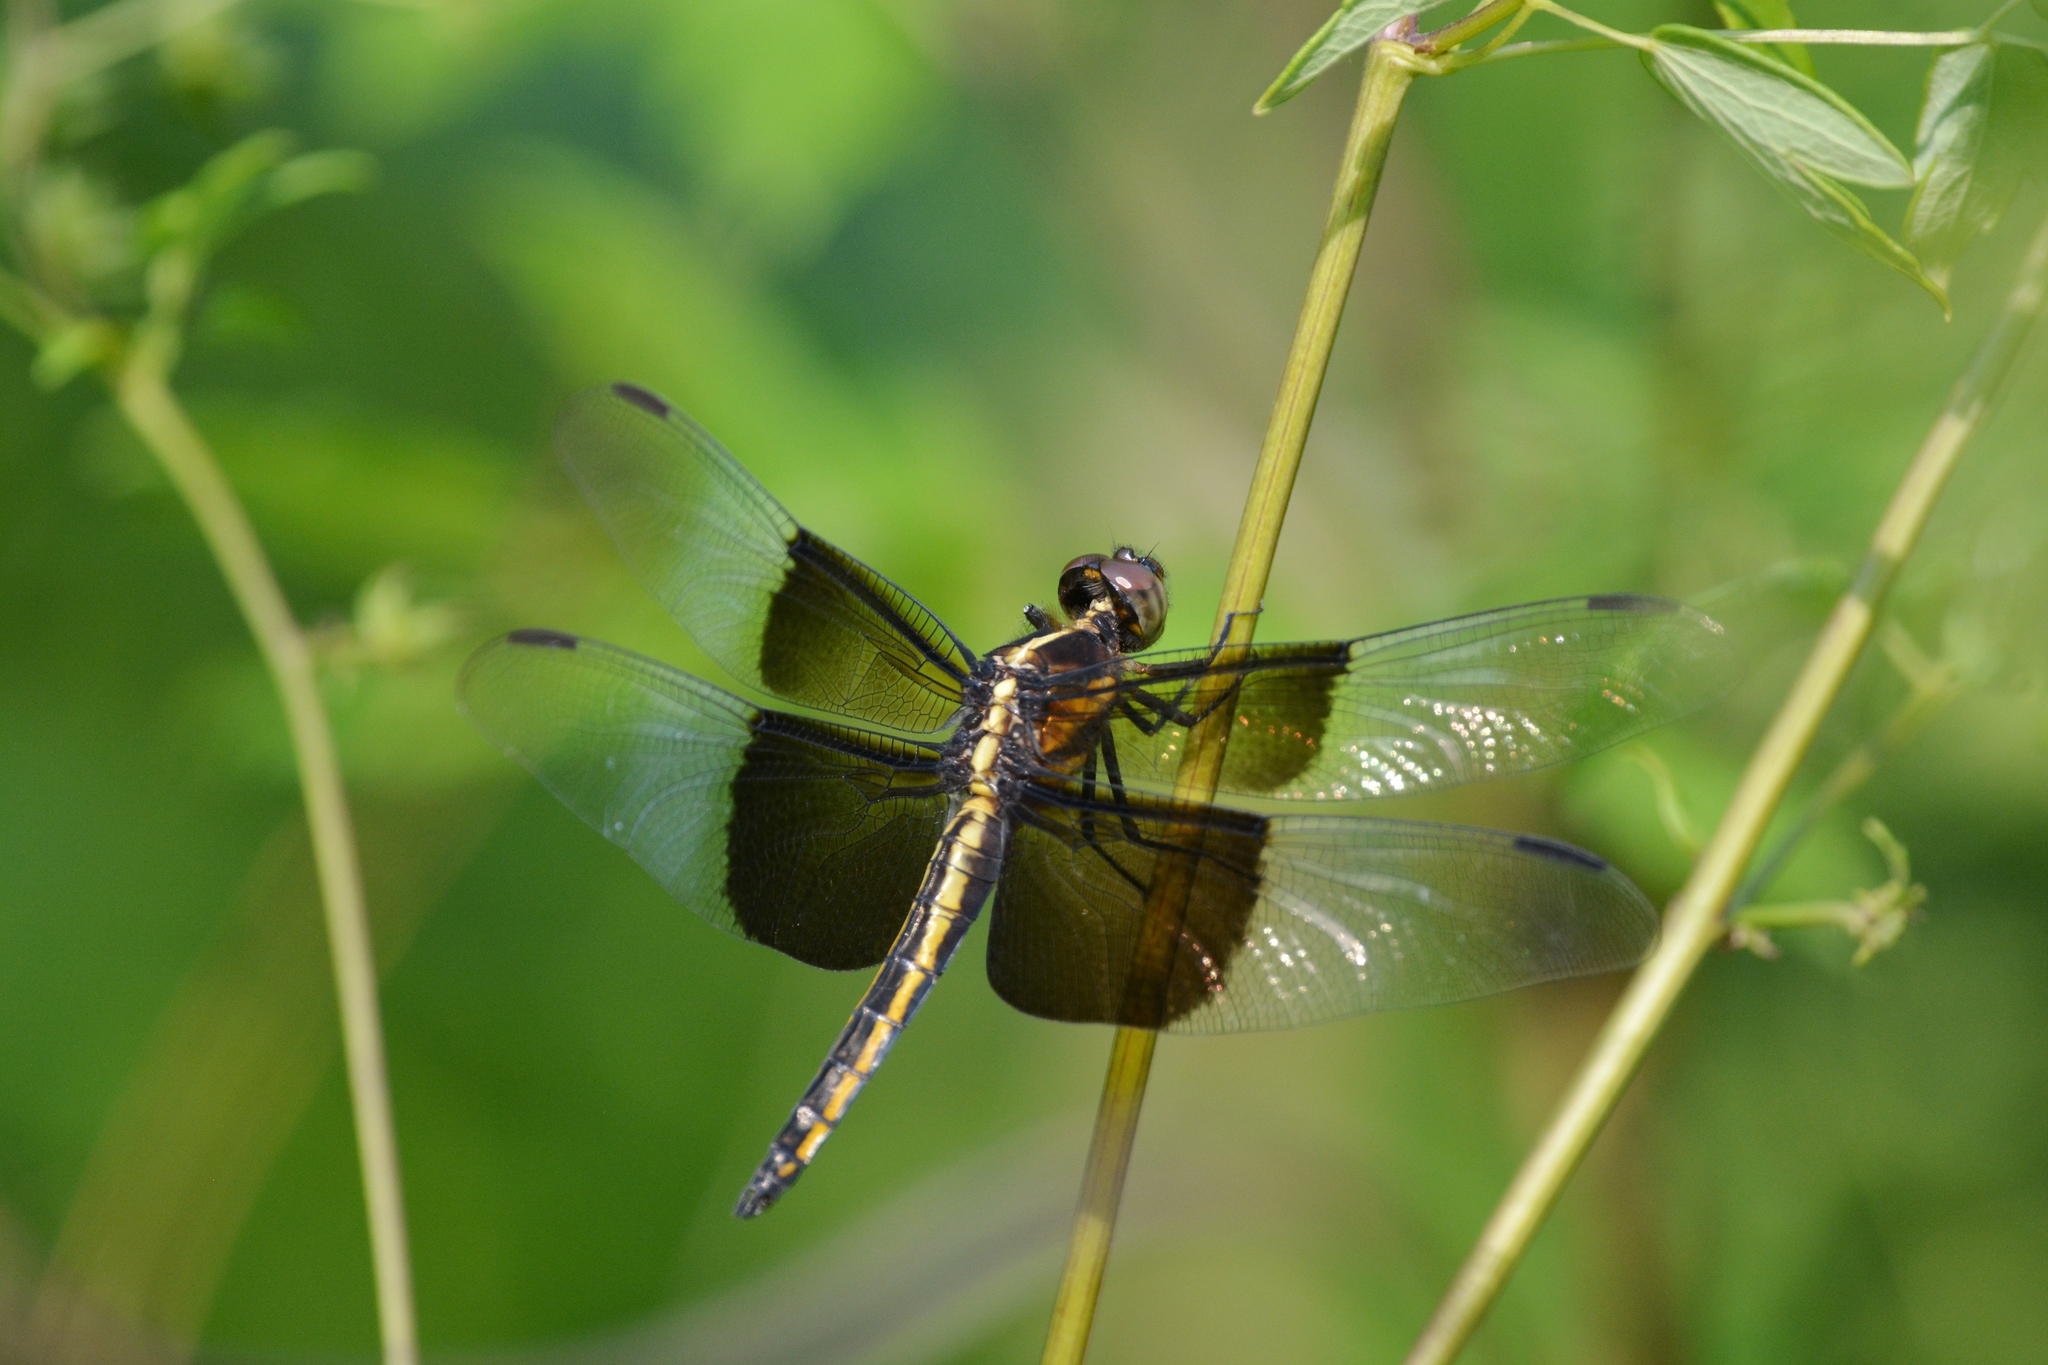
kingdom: Animalia
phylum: Arthropoda
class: Insecta
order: Odonata
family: Libellulidae
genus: Libellula
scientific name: Libellula luctuosa
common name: Widow skimmer
